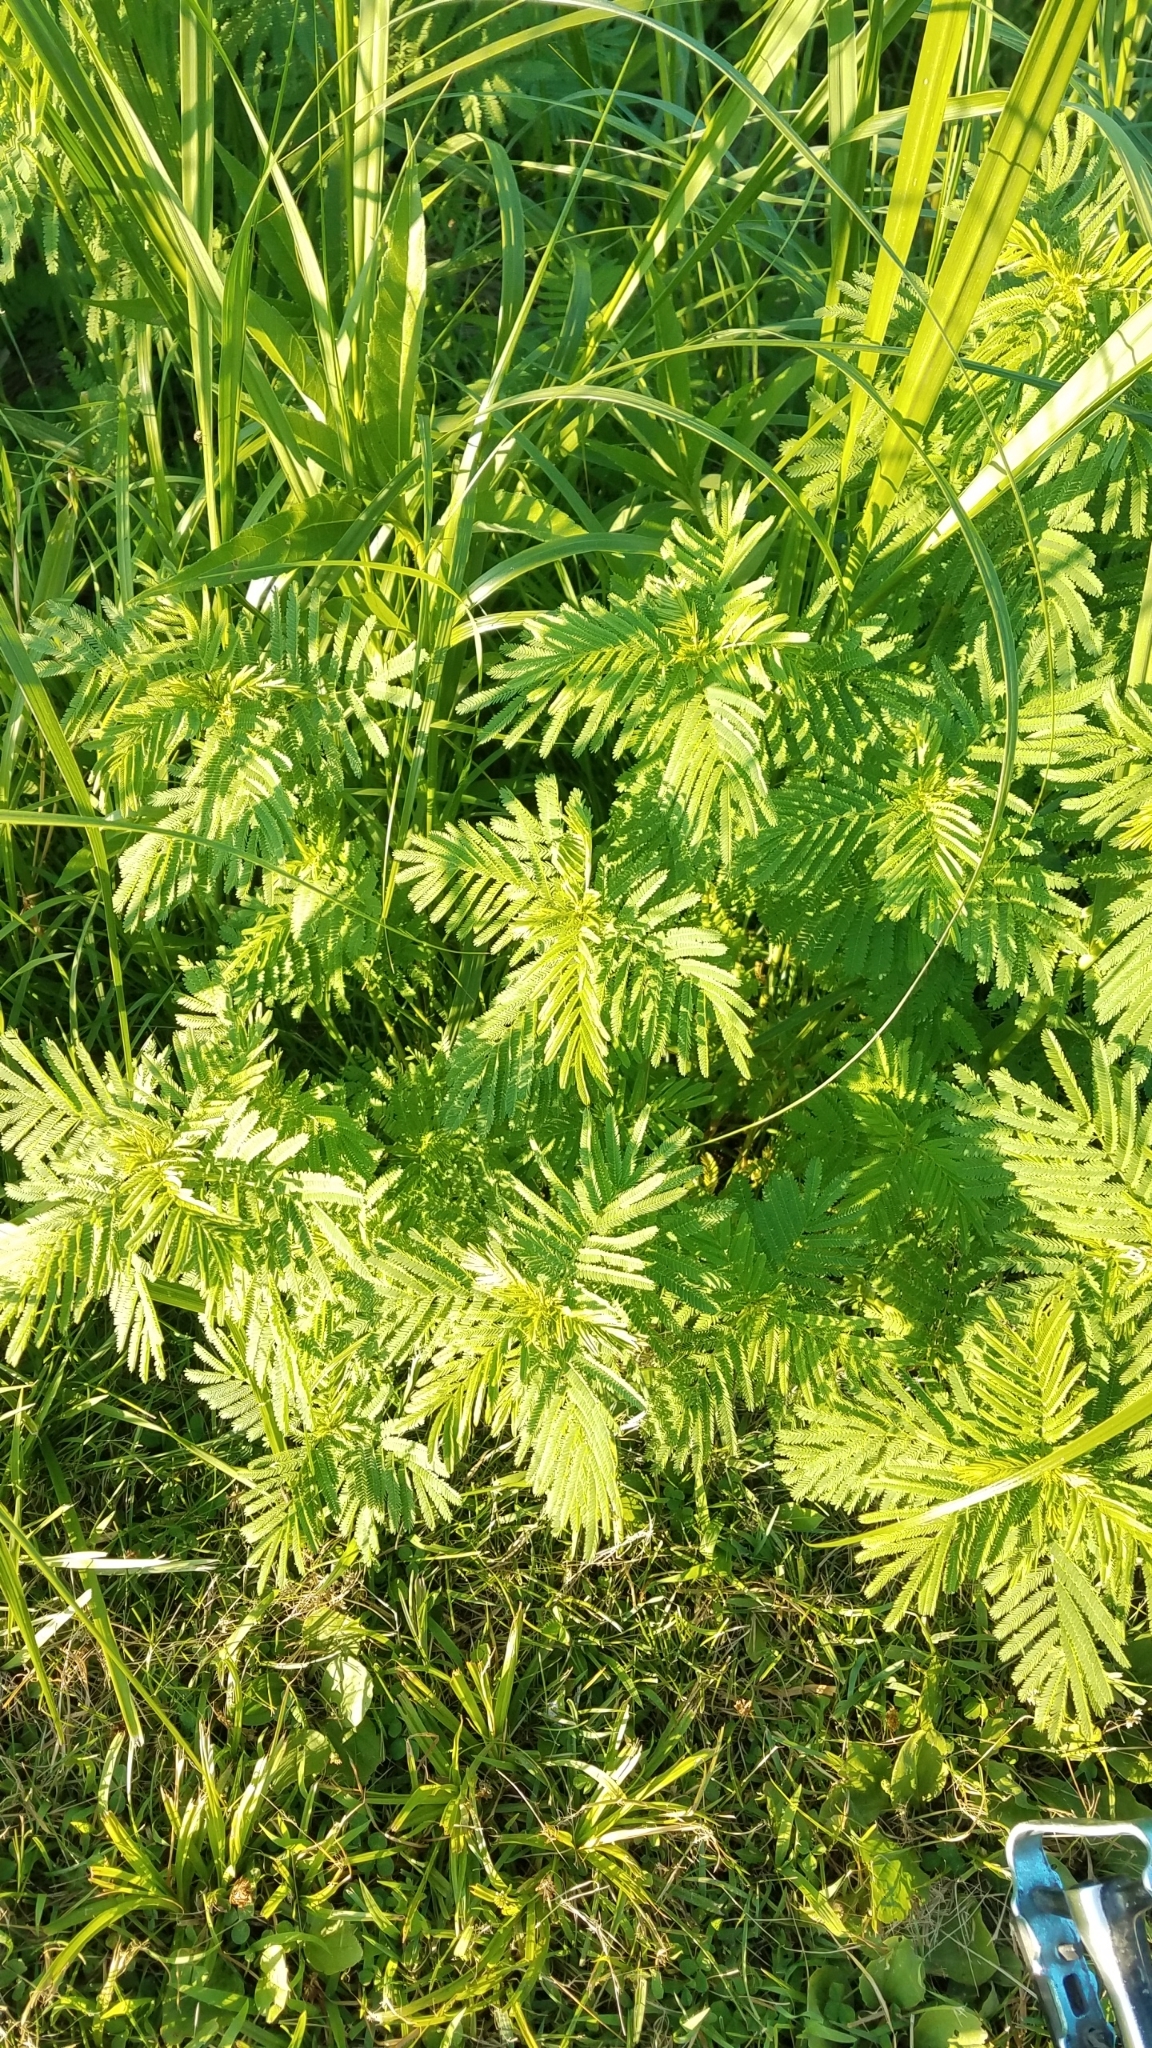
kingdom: Plantae
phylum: Tracheophyta
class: Magnoliopsida
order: Fabales
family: Fabaceae
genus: Desmanthus
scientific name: Desmanthus illinoensis
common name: Illinois bundle-flower
